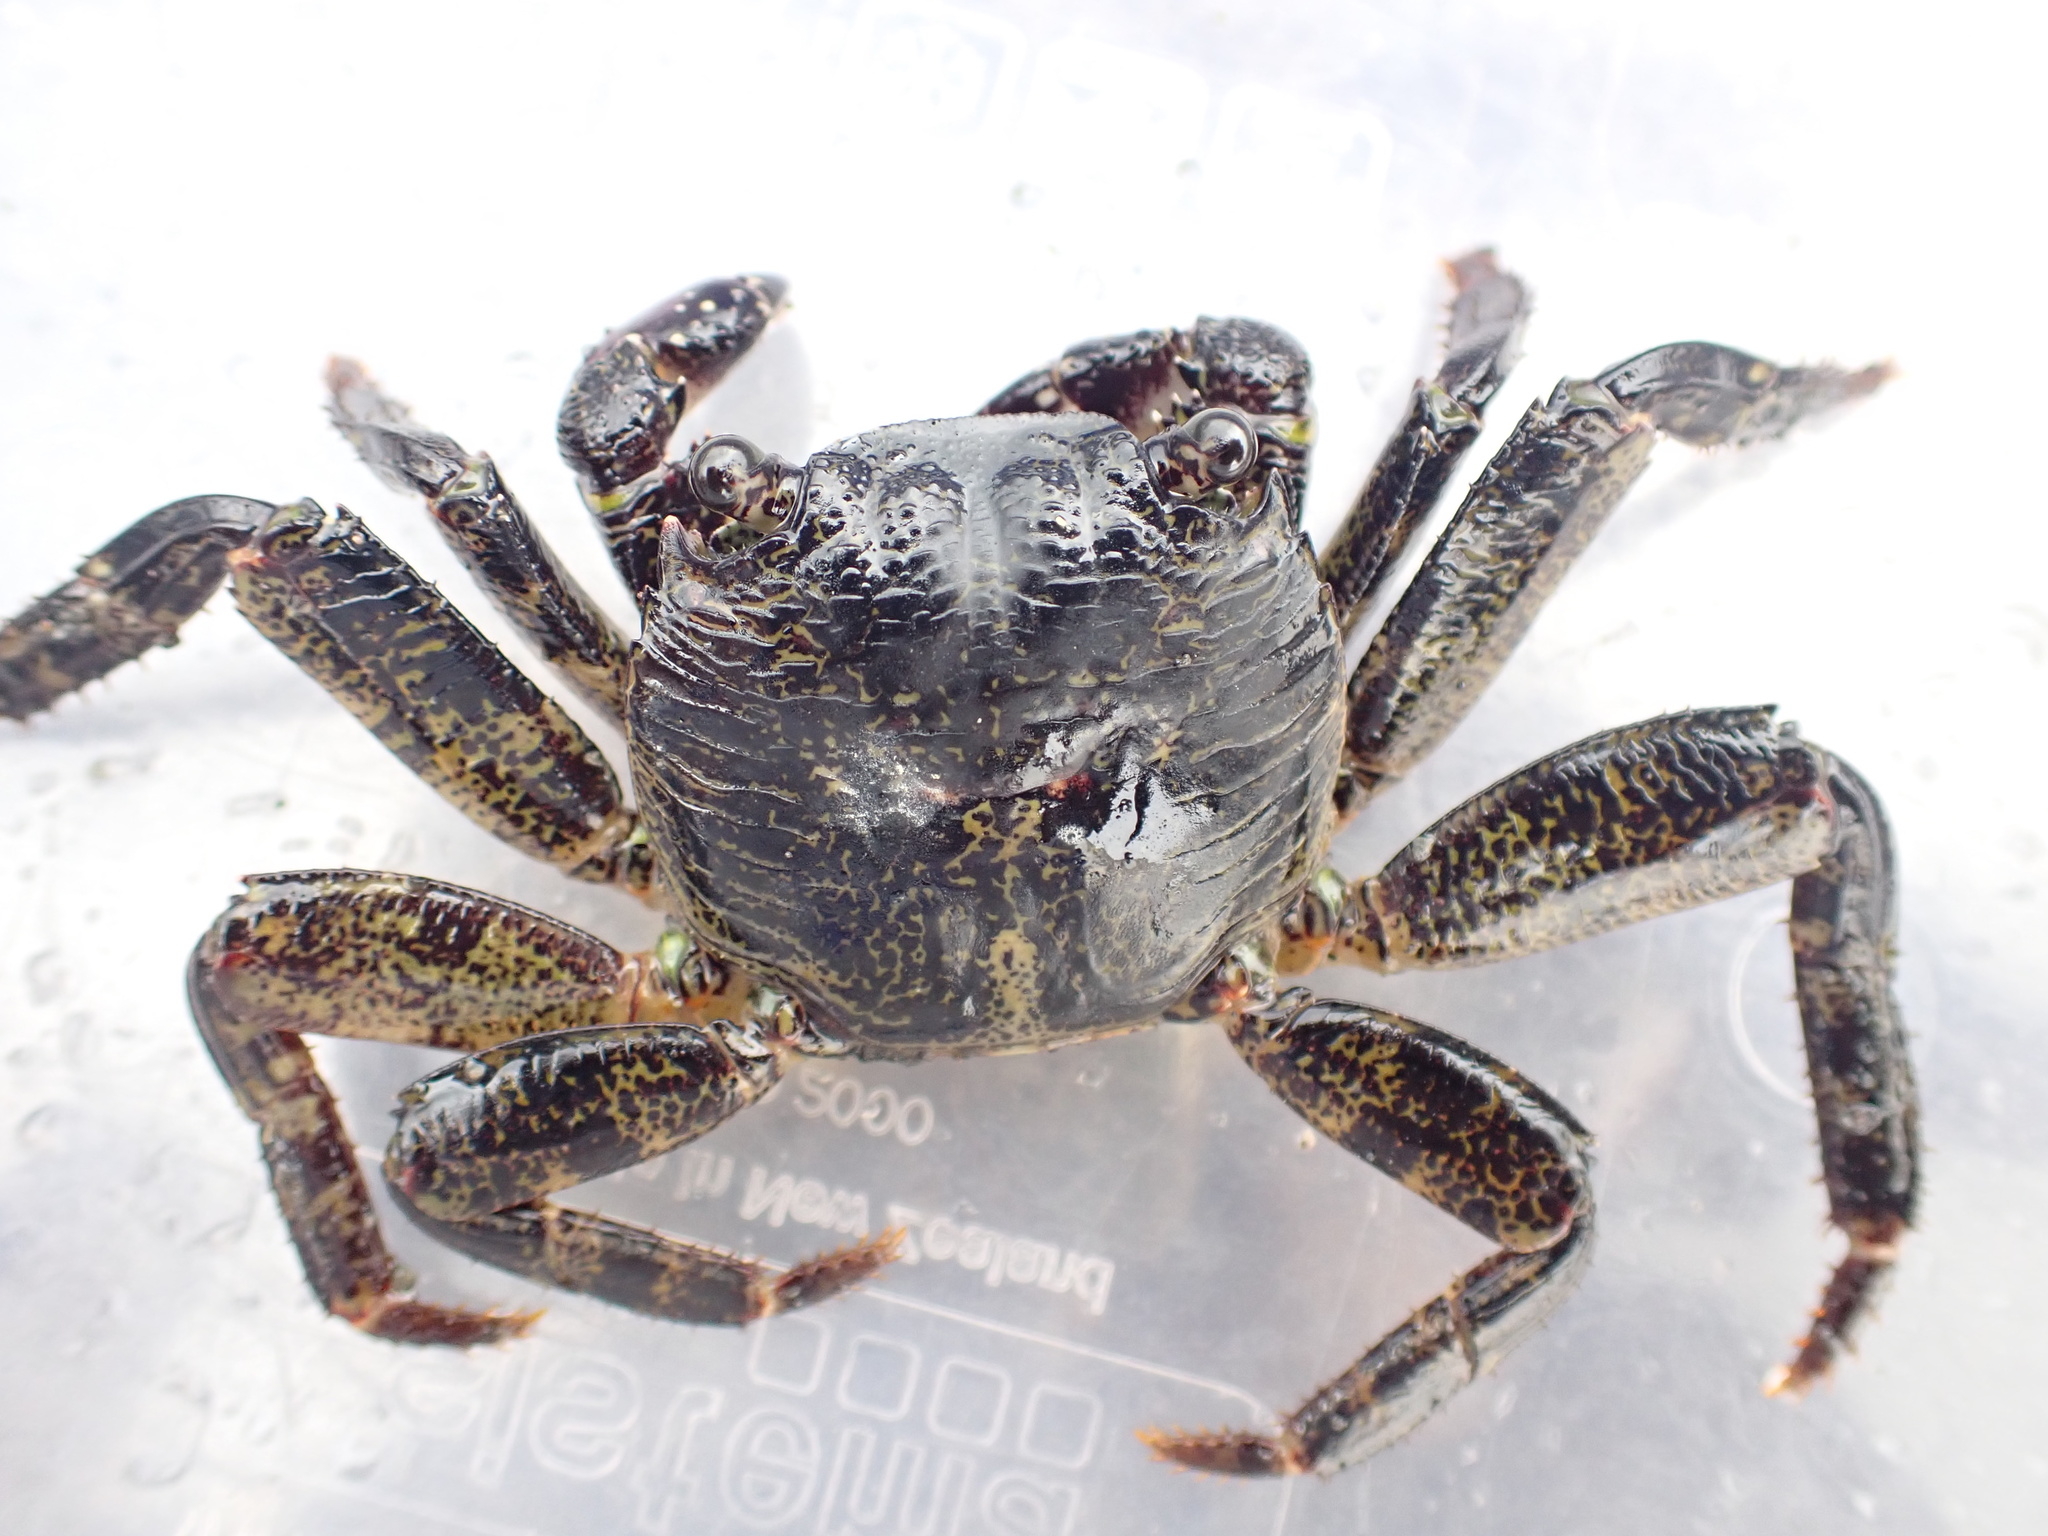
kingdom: Animalia
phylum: Arthropoda
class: Malacostraca
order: Decapoda
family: Grapsidae
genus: Leptograpsus
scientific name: Leptograpsus variegatus
